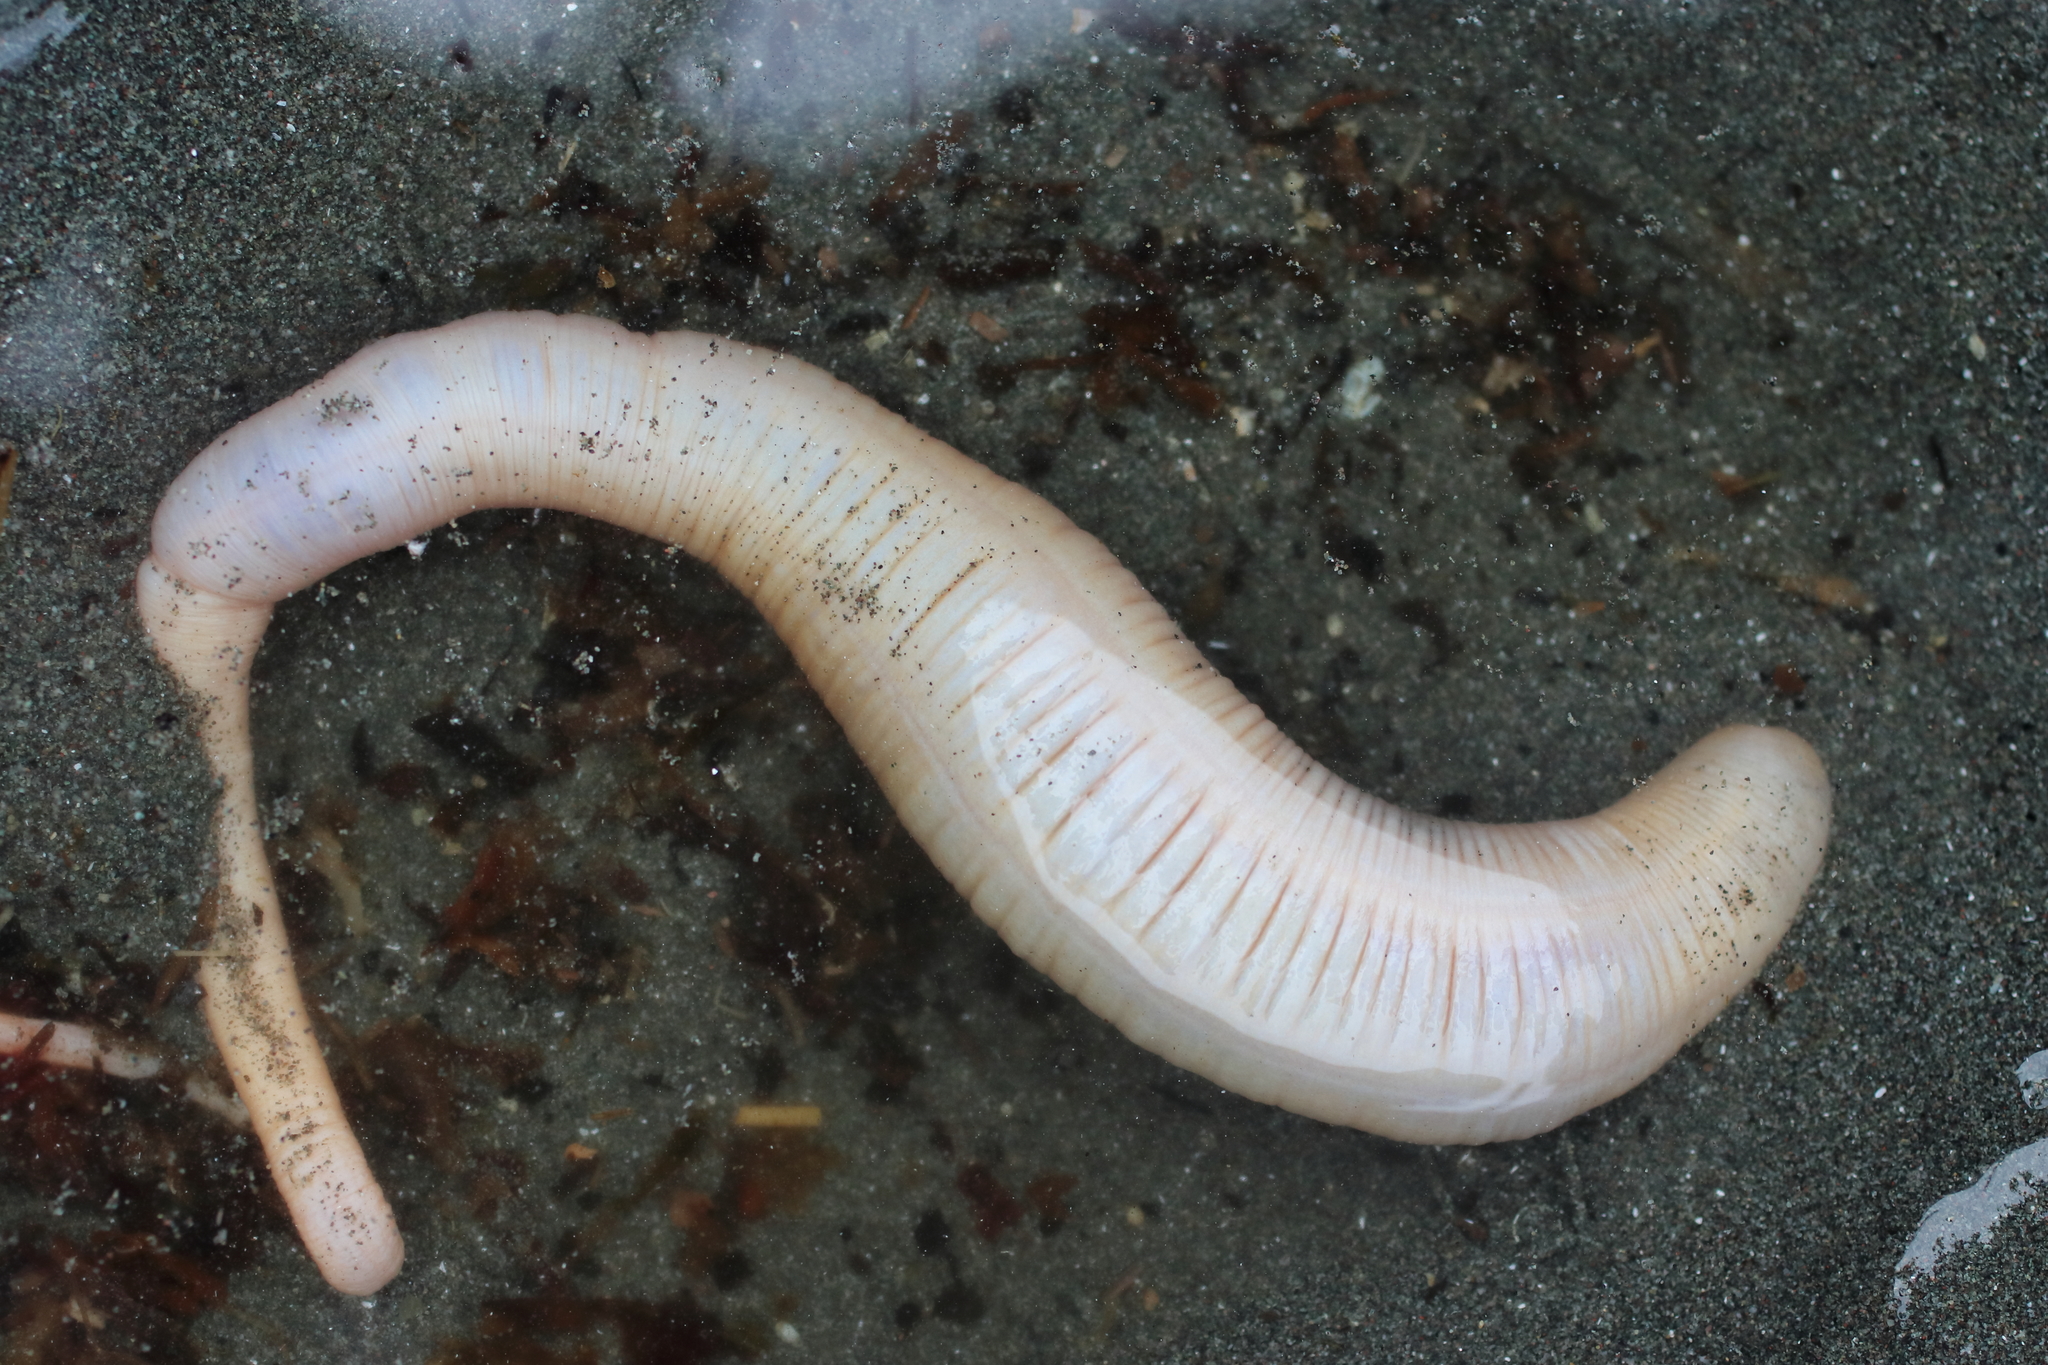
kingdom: Animalia
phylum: Echinodermata
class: Holothuroidea
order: Molpadida
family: Caudinidae
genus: Paracaudina
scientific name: Paracaudina chilensis
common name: Rat-tailed fusiform sea cucumber
